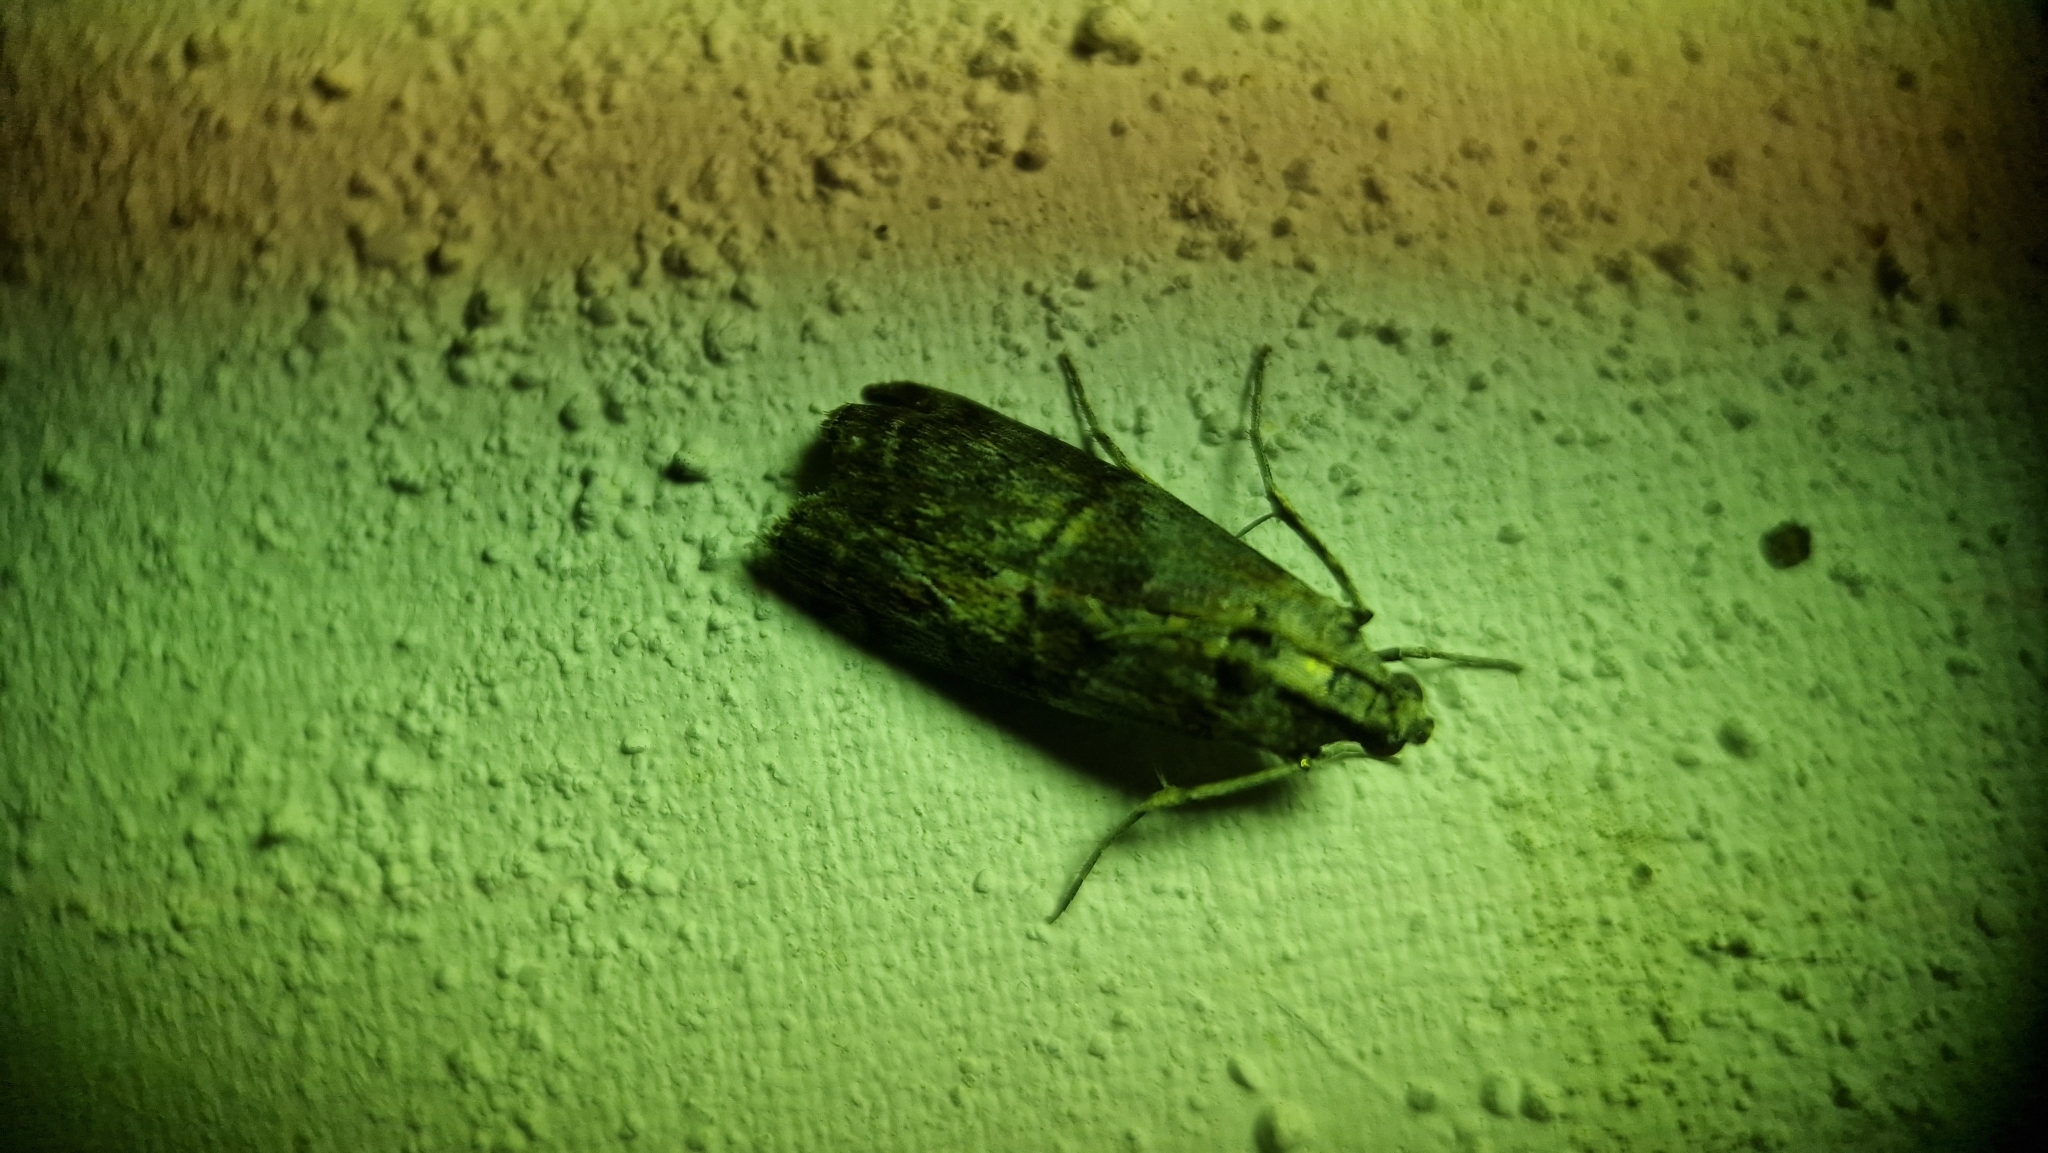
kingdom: Animalia
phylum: Arthropoda
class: Insecta
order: Lepidoptera
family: Pyralidae
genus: Phycita
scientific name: Phycita roborella
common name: Dotted oak knot-horn
